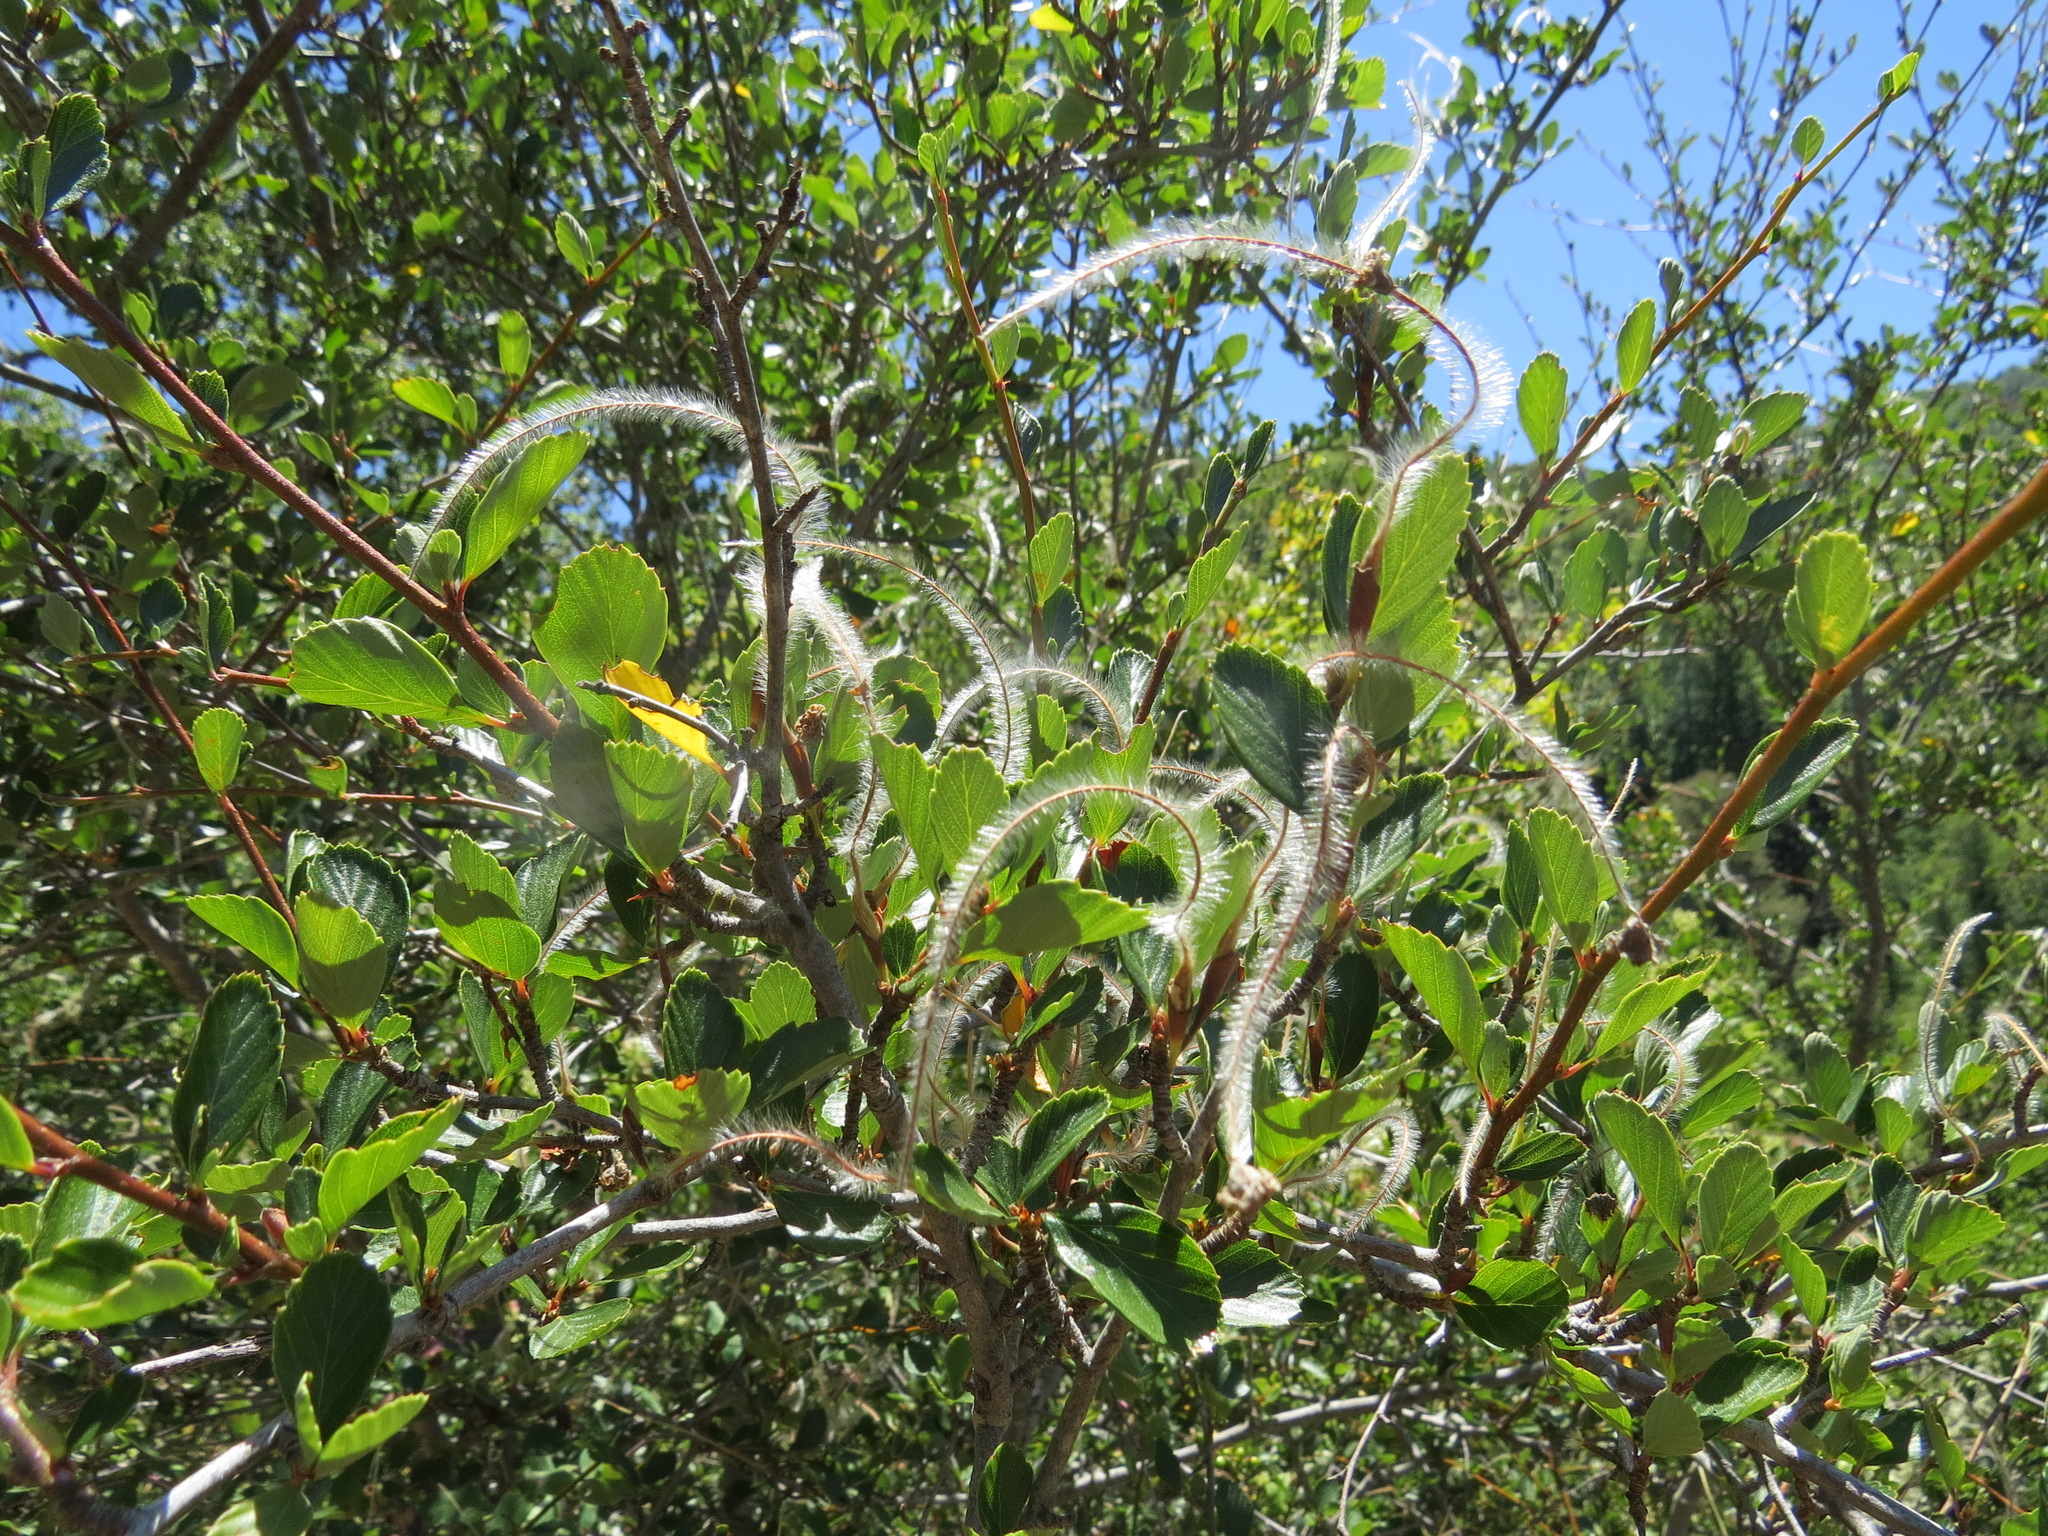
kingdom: Plantae
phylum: Tracheophyta
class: Magnoliopsida
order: Rosales
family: Rosaceae
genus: Cercocarpus
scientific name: Cercocarpus betuloides
